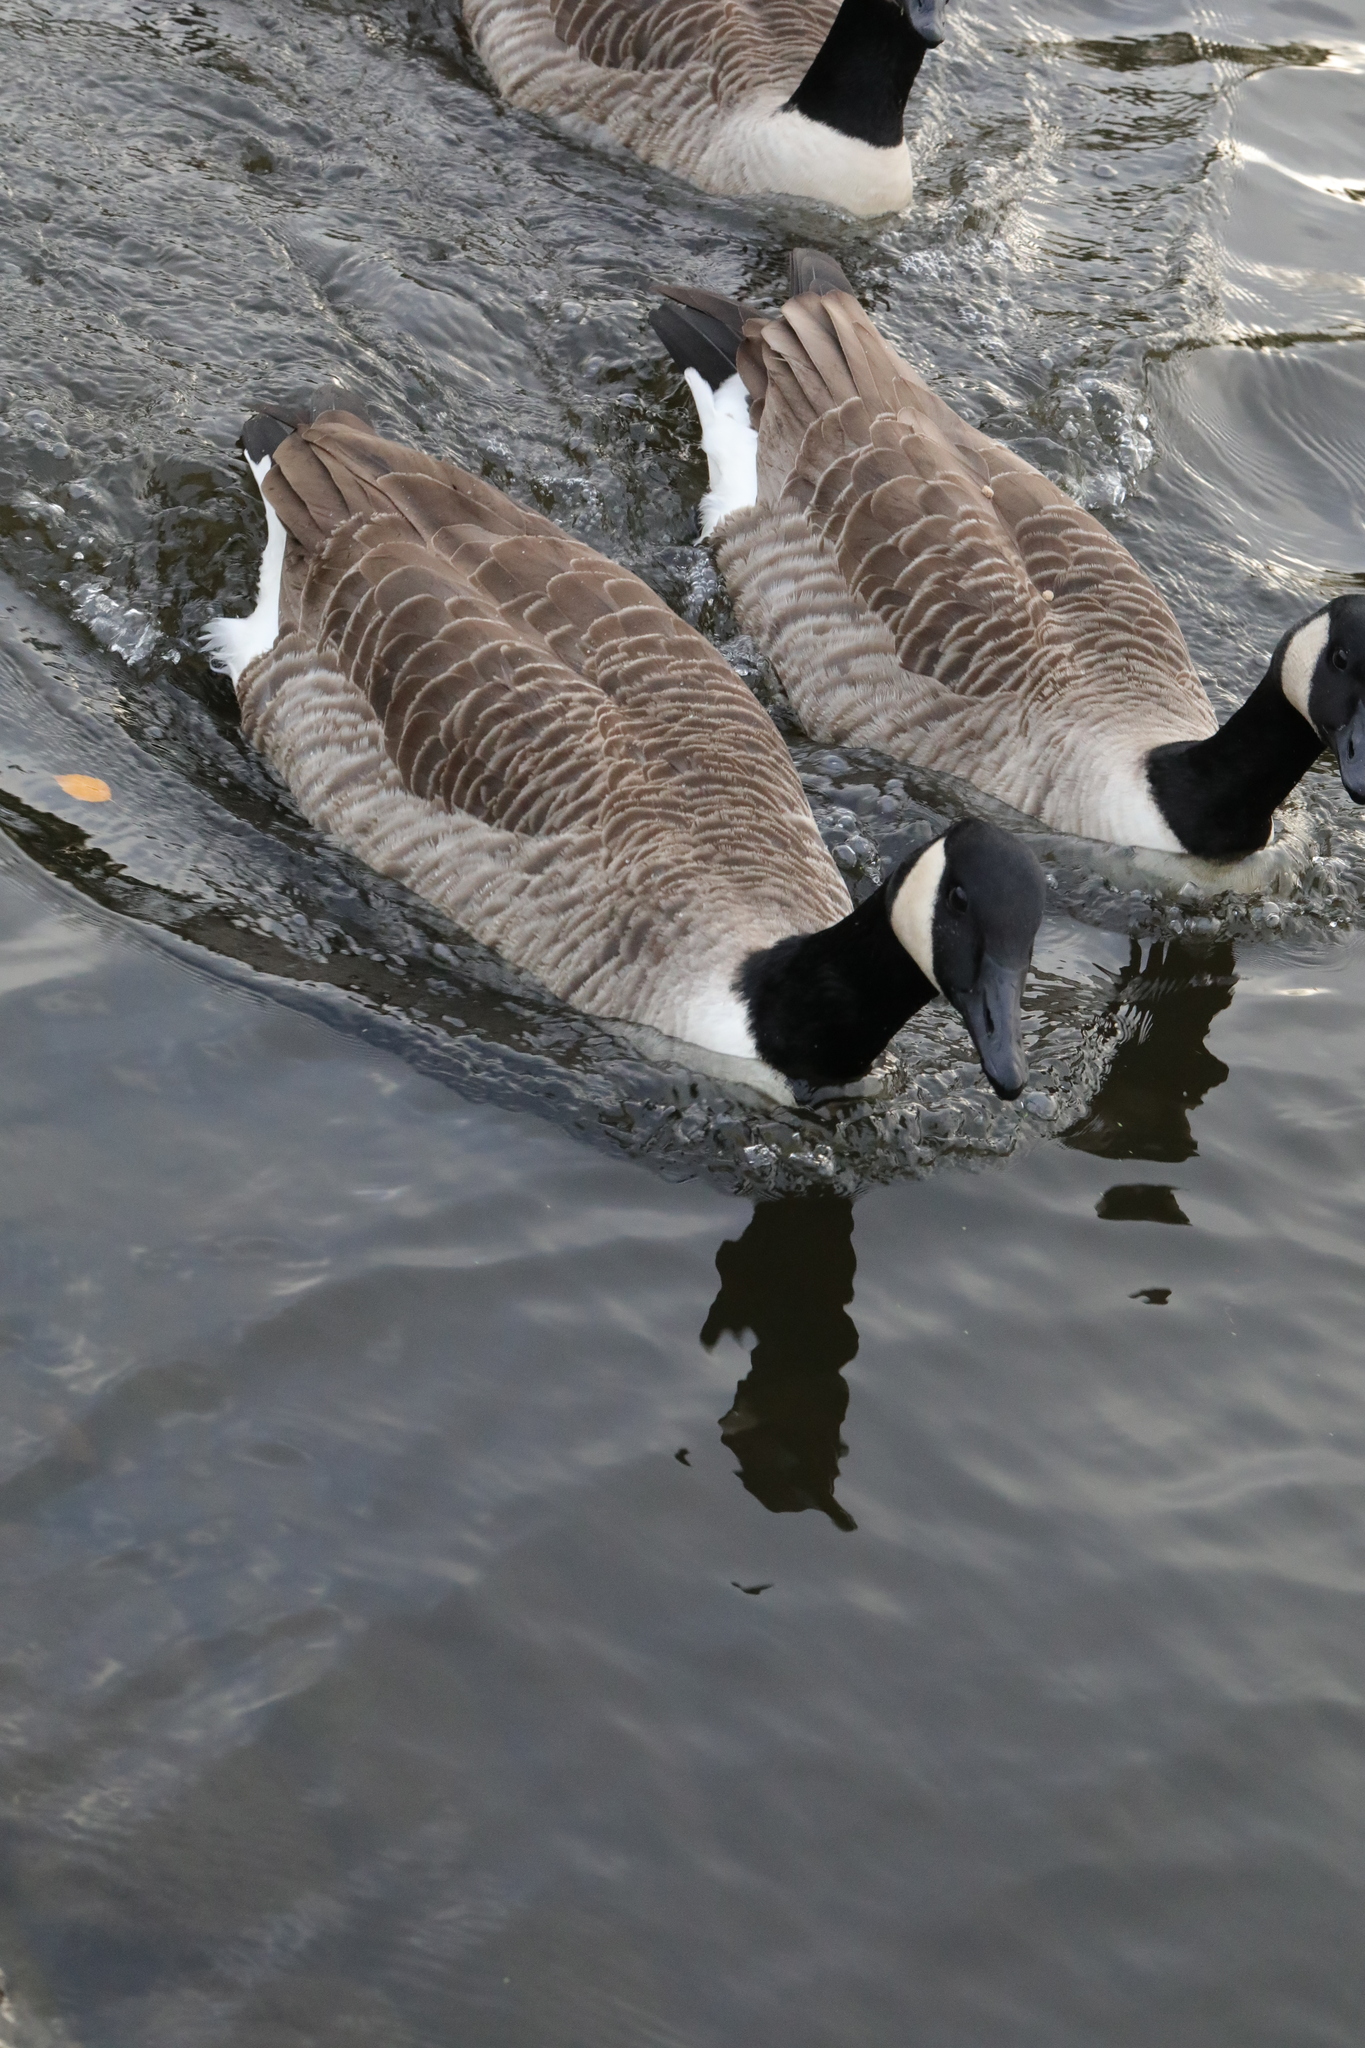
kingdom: Animalia
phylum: Chordata
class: Aves
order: Anseriformes
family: Anatidae
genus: Branta
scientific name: Branta canadensis
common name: Canada goose
